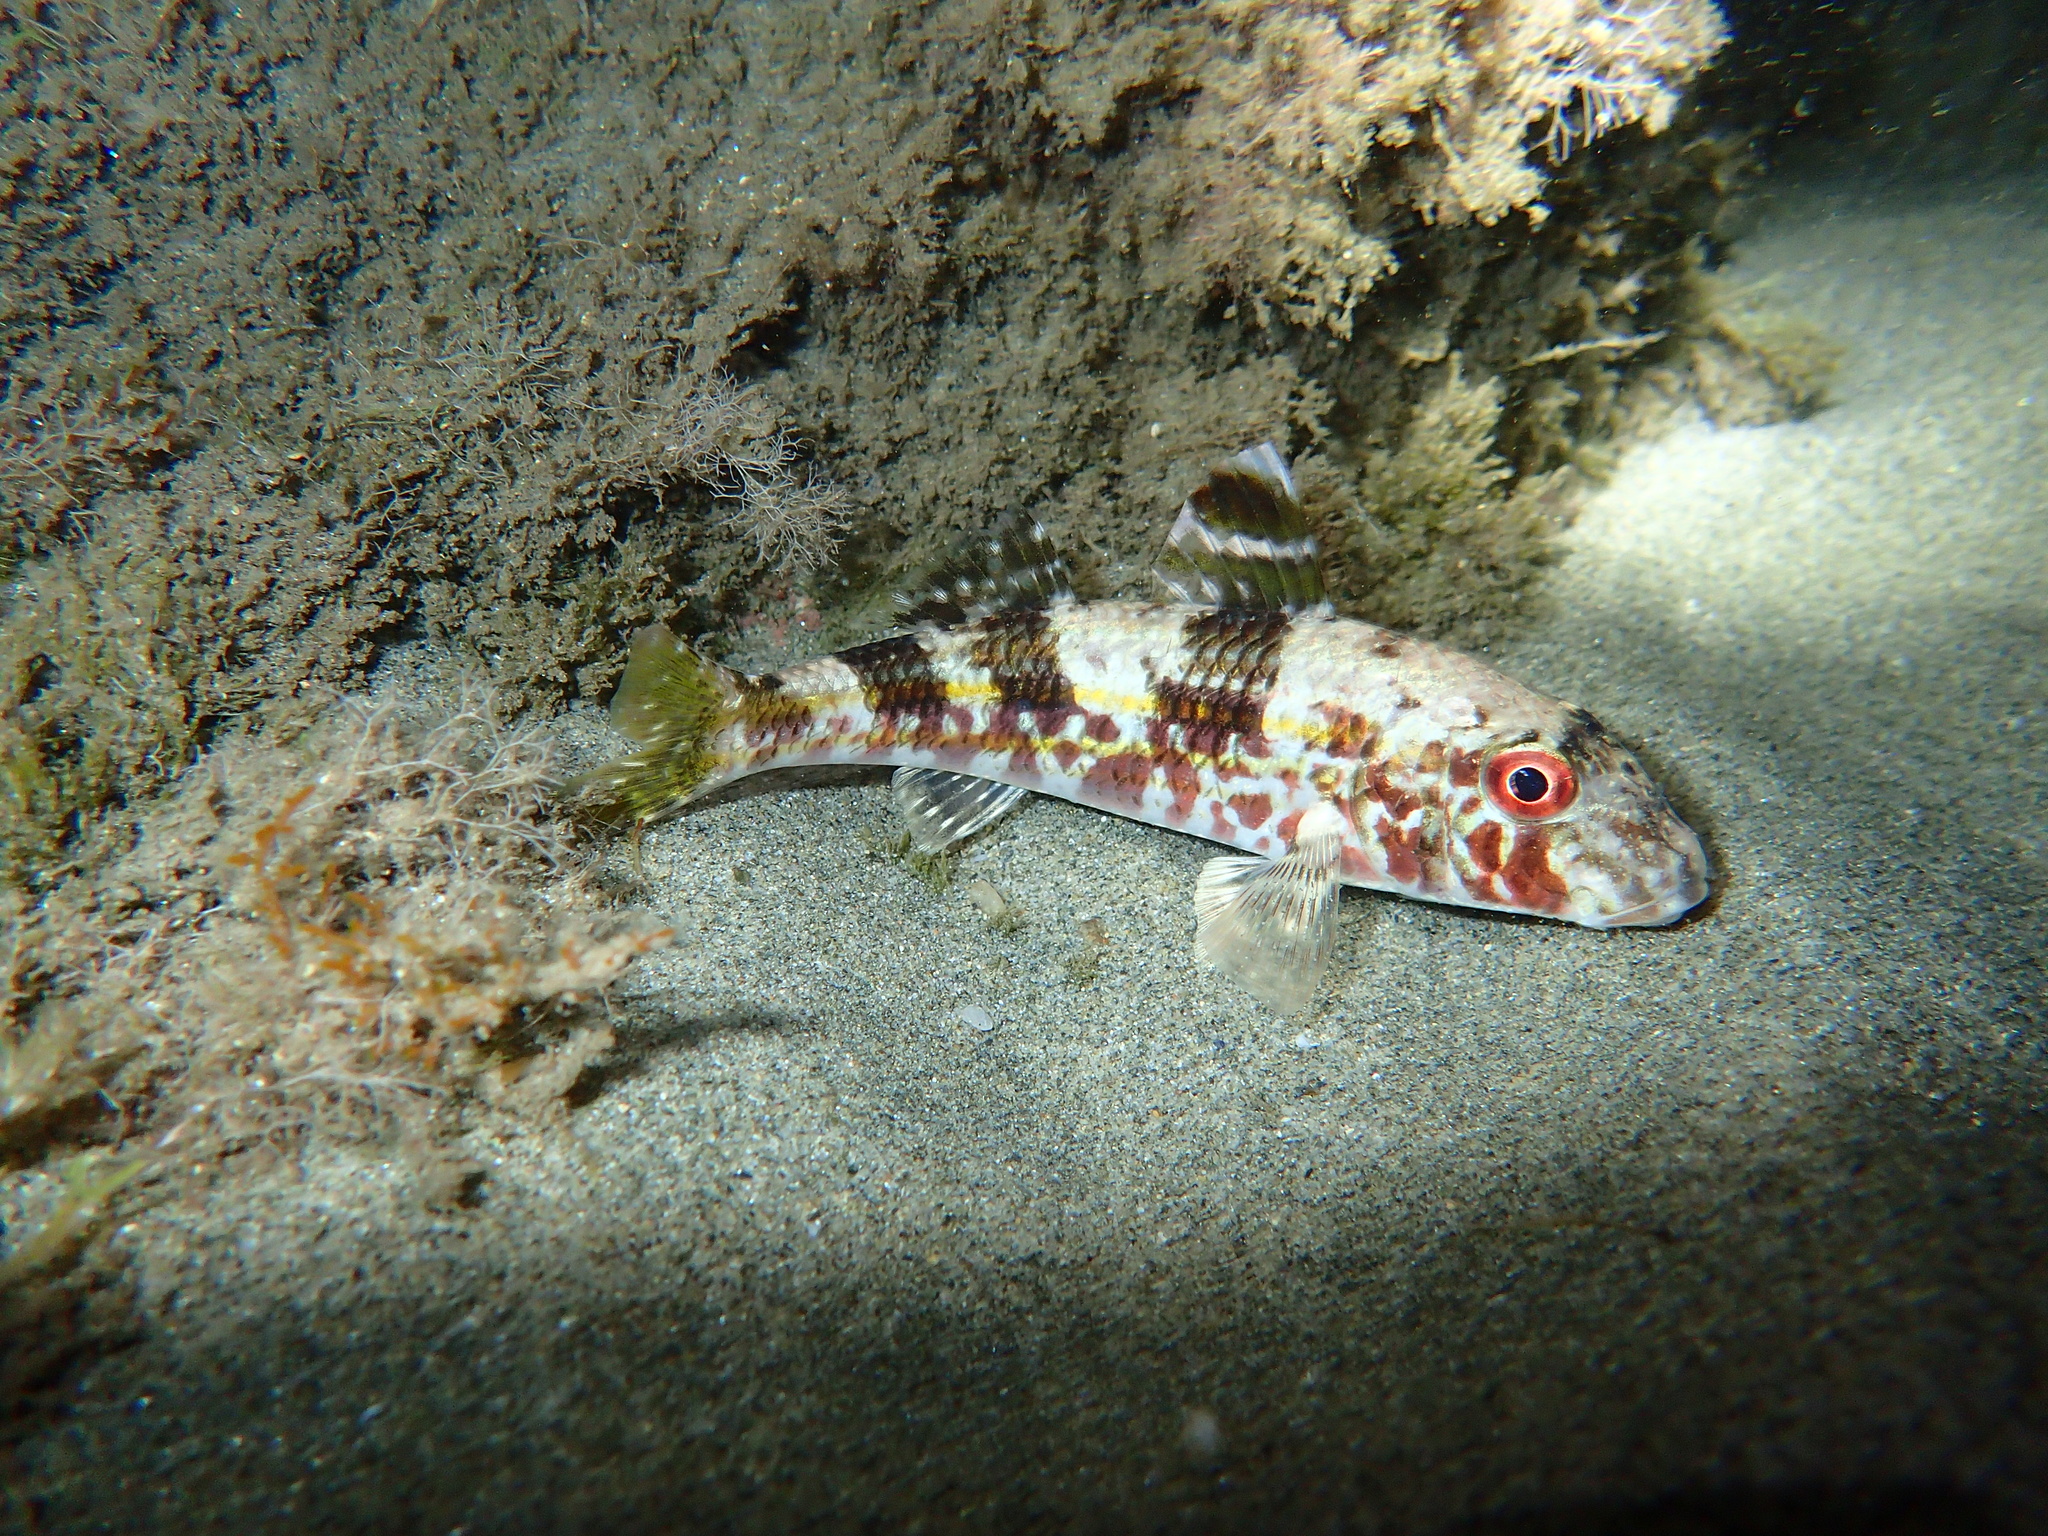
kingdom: Animalia
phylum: Chordata
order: Perciformes
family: Mullidae
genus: Mullus
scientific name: Mullus surmuletus
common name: Red mullet
